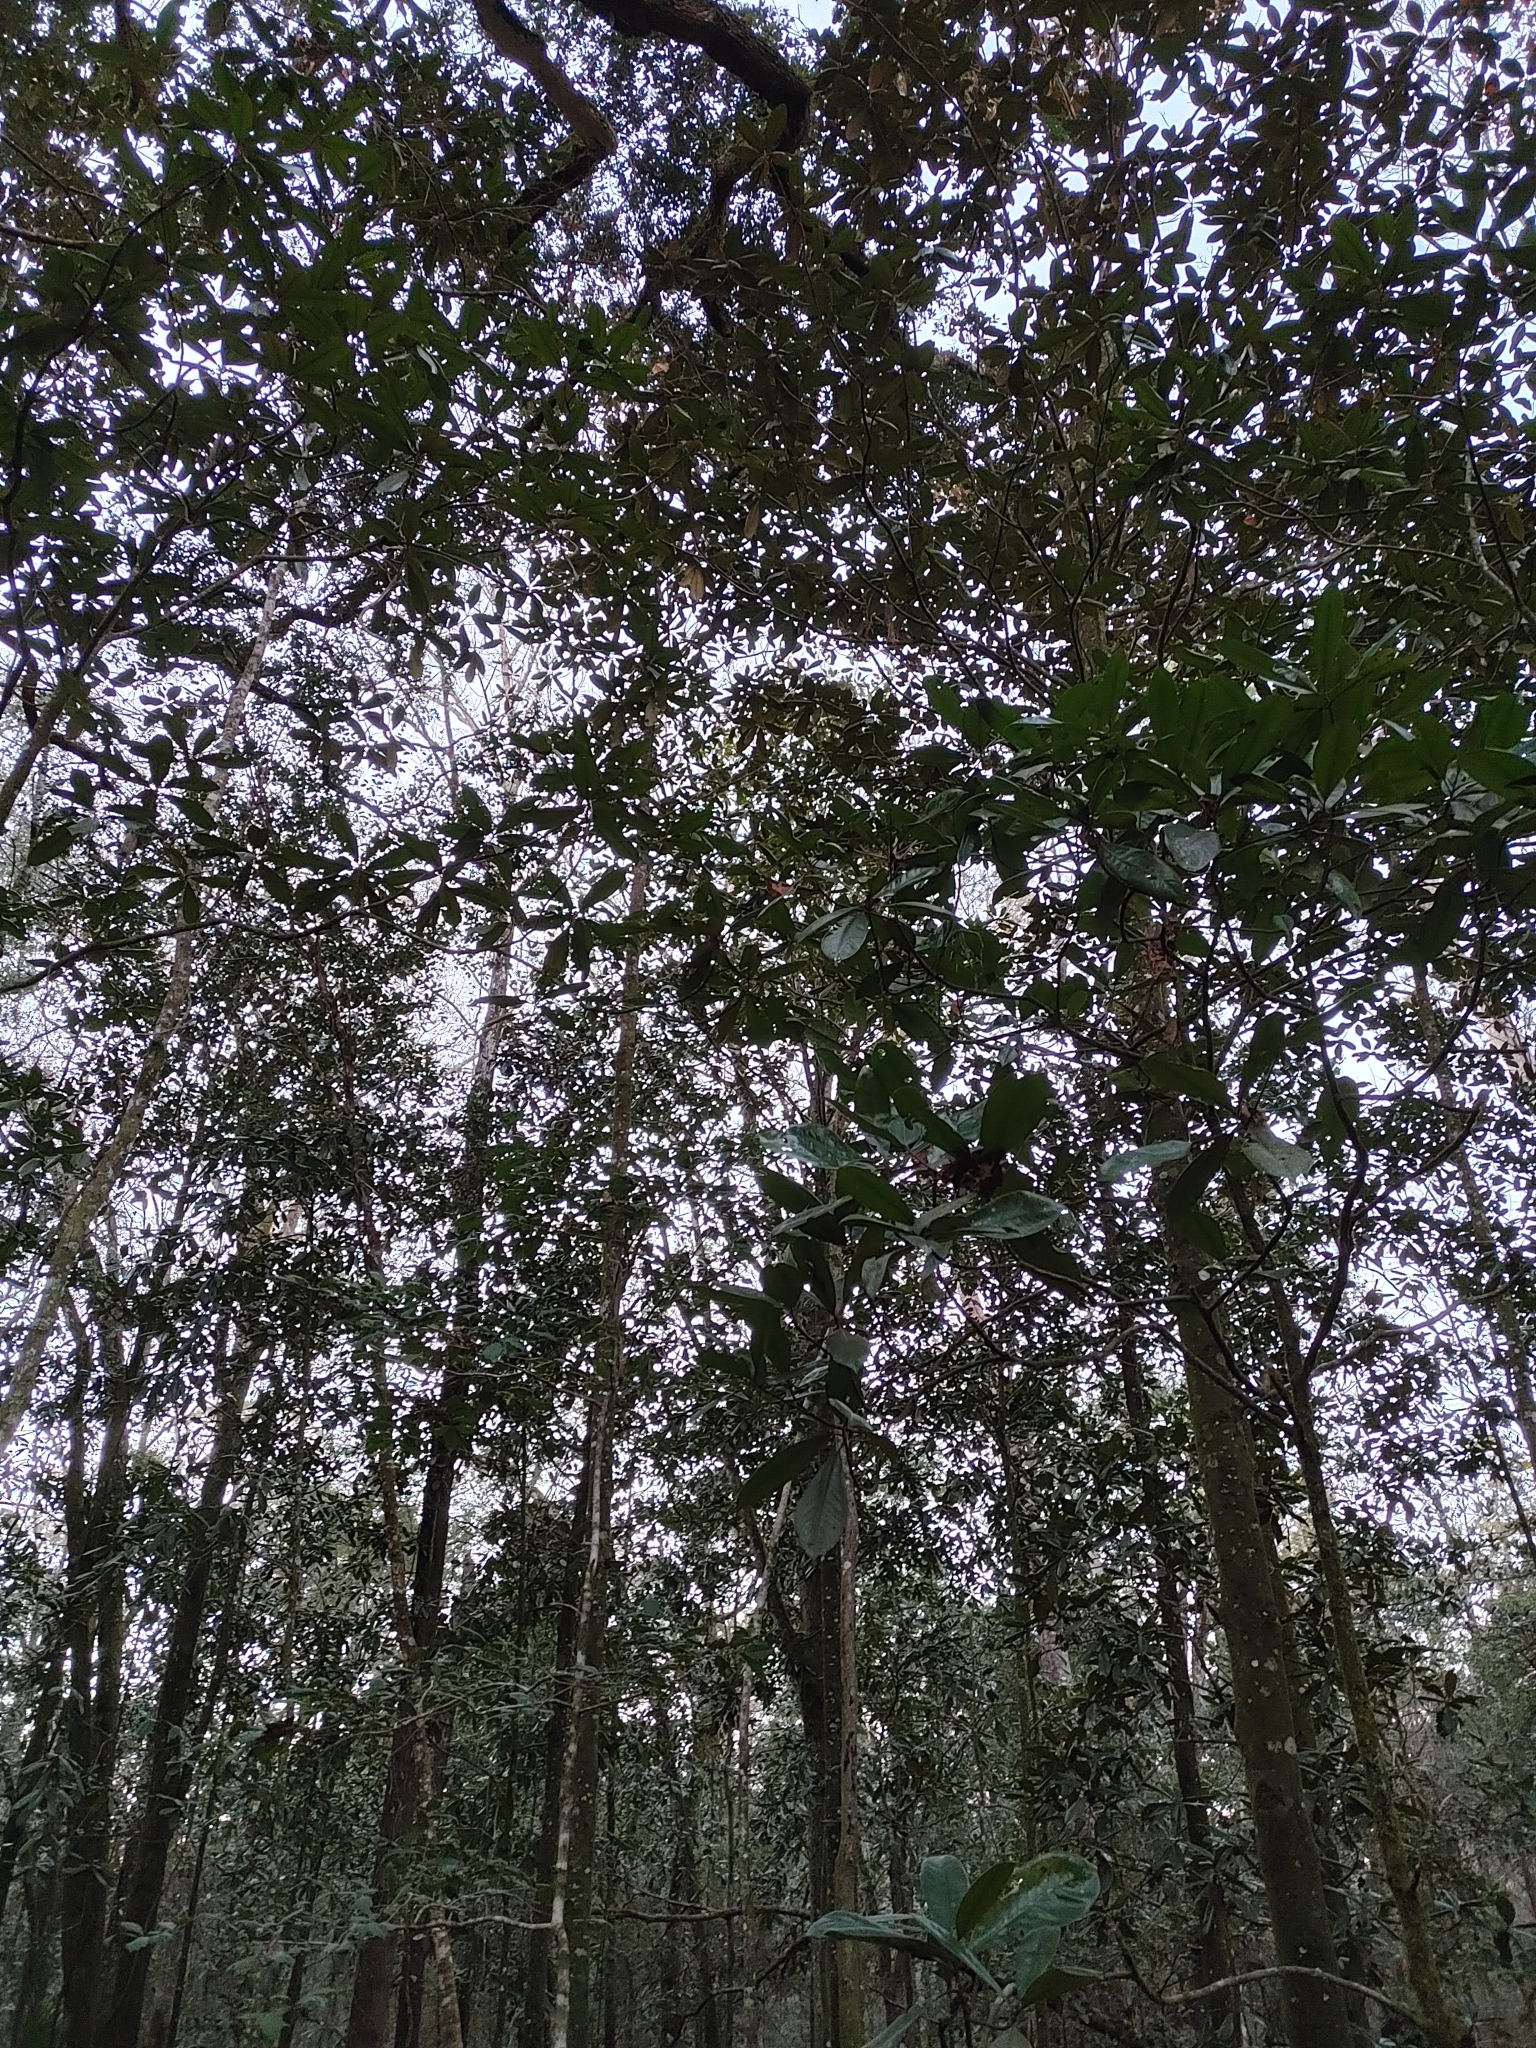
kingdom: Plantae
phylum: Tracheophyta
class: Magnoliopsida
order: Magnoliales
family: Magnoliaceae
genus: Magnolia
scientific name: Magnolia grandiflora
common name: Southern magnolia
